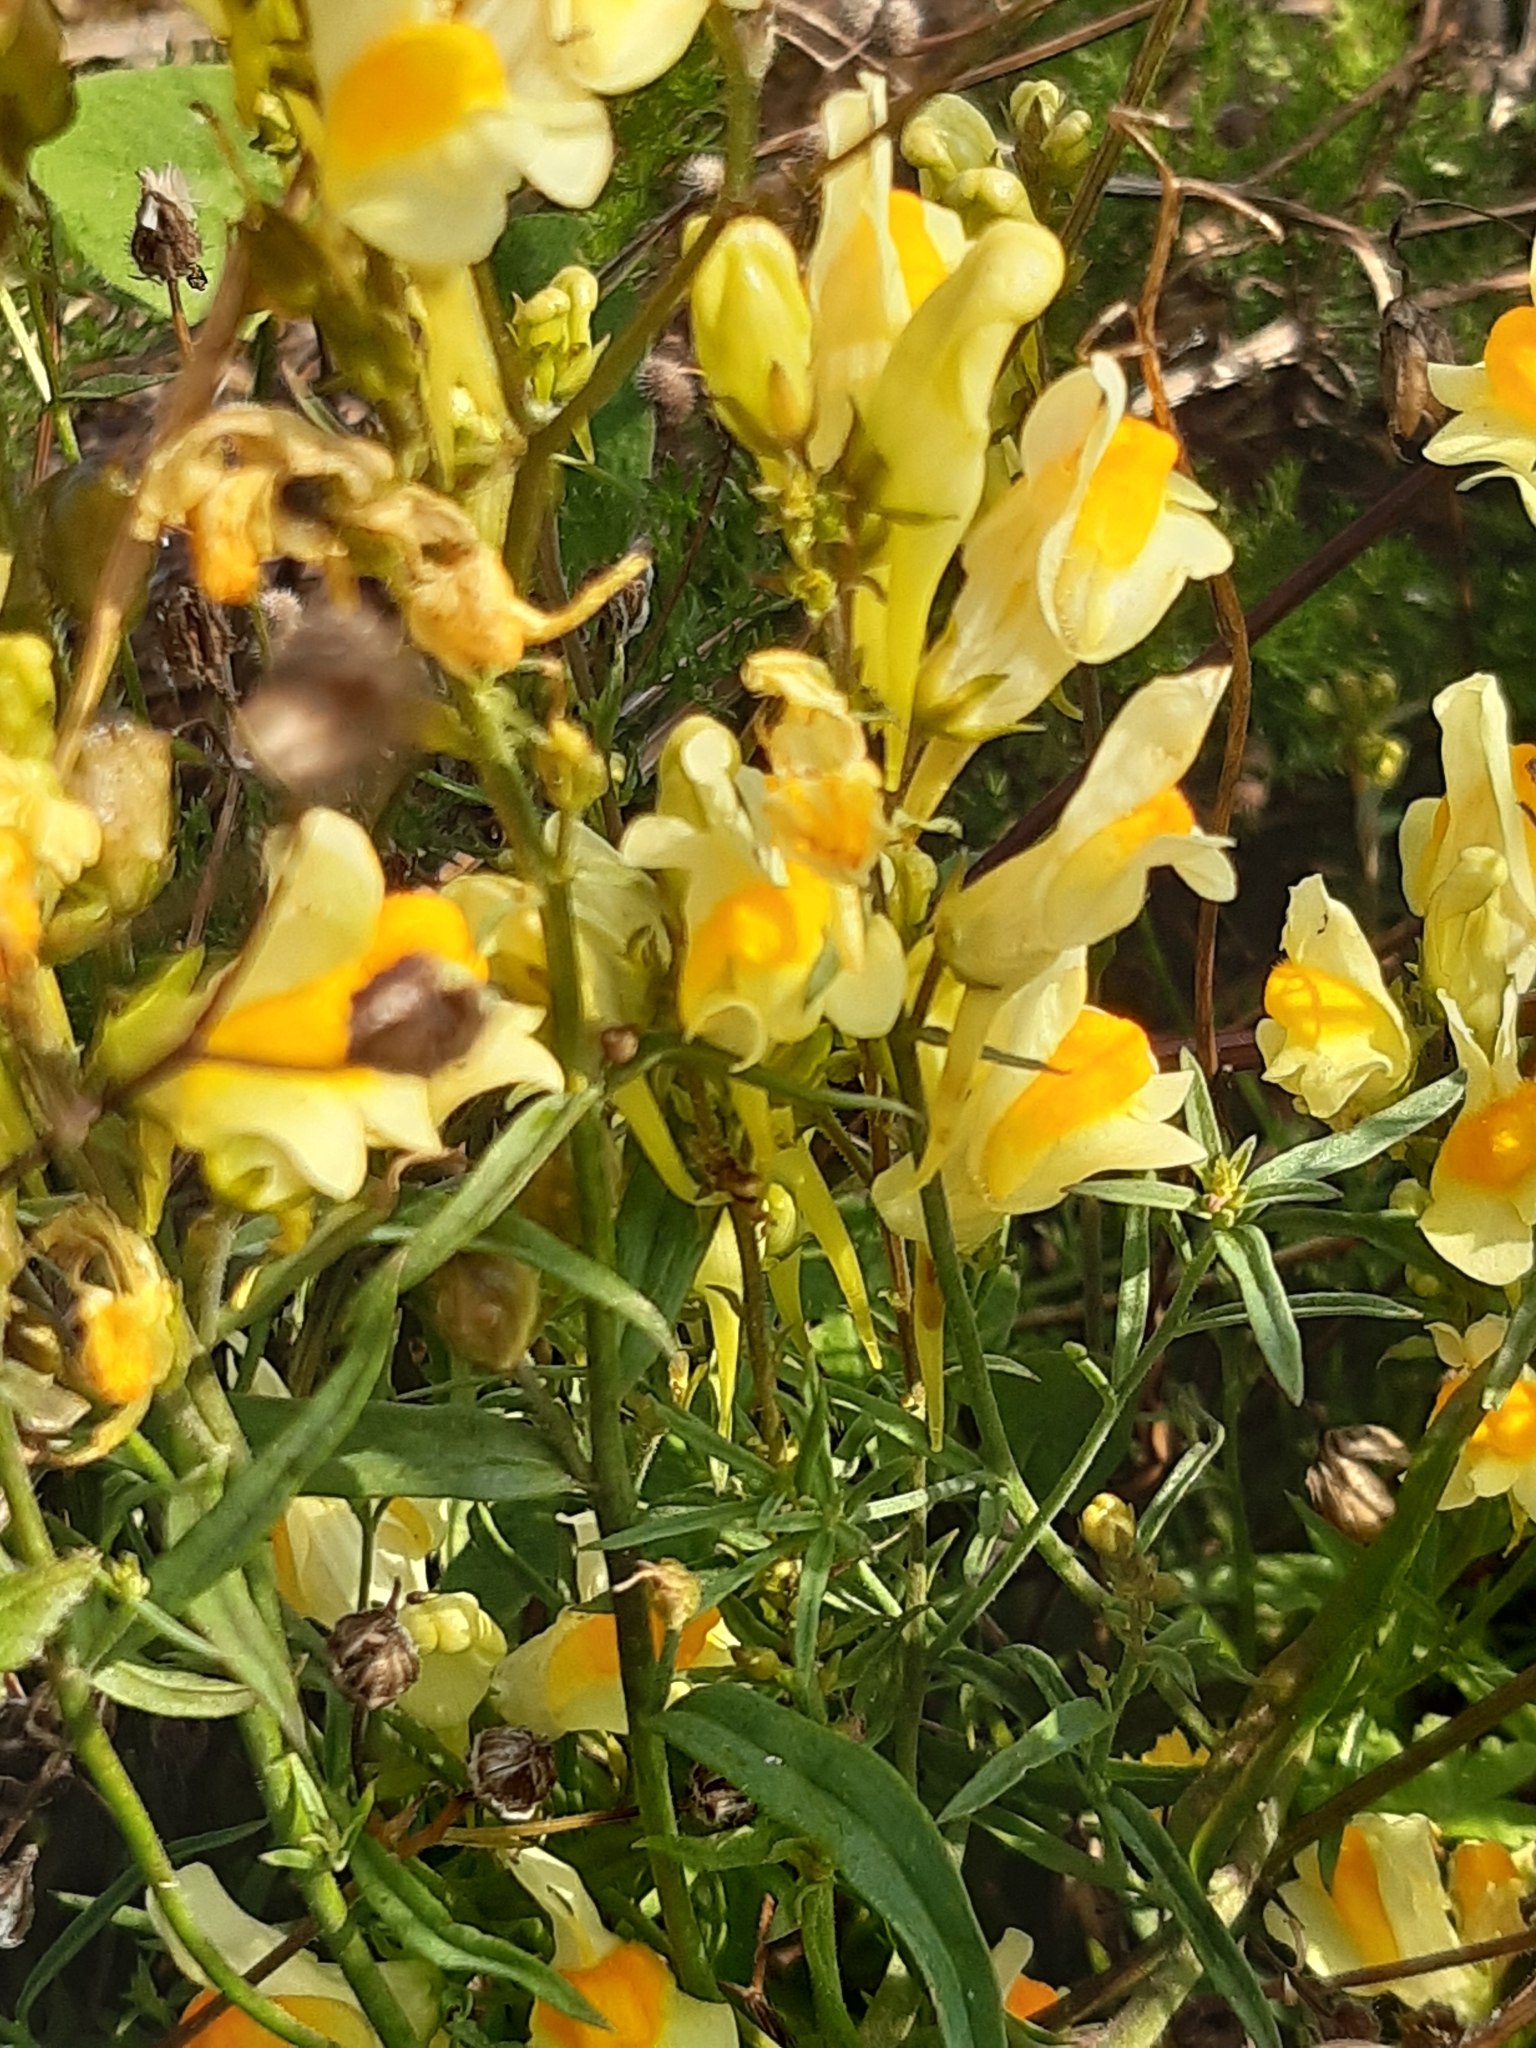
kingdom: Plantae
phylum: Tracheophyta
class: Magnoliopsida
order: Lamiales
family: Plantaginaceae
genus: Linaria
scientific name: Linaria vulgaris
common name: Butter and eggs
